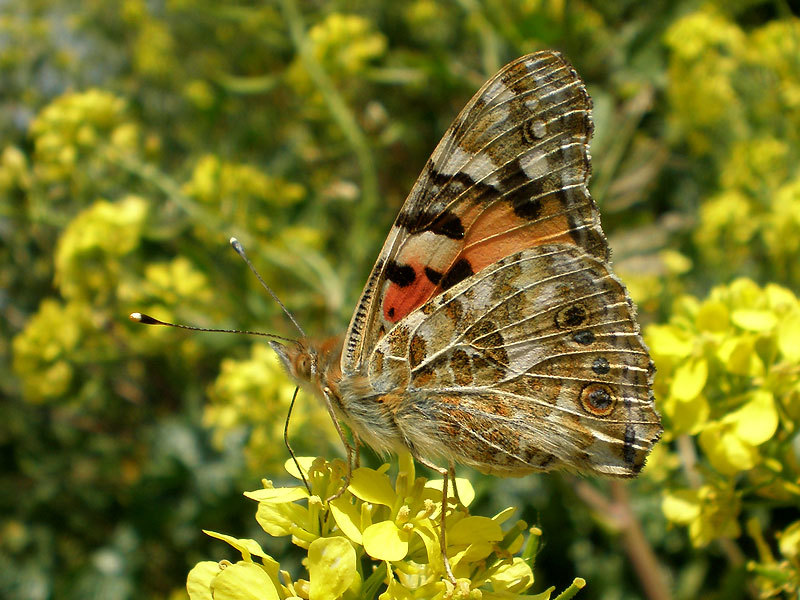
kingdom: Animalia
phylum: Arthropoda
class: Insecta
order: Lepidoptera
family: Nymphalidae
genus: Vanessa
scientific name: Vanessa cardui
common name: Painted lady
